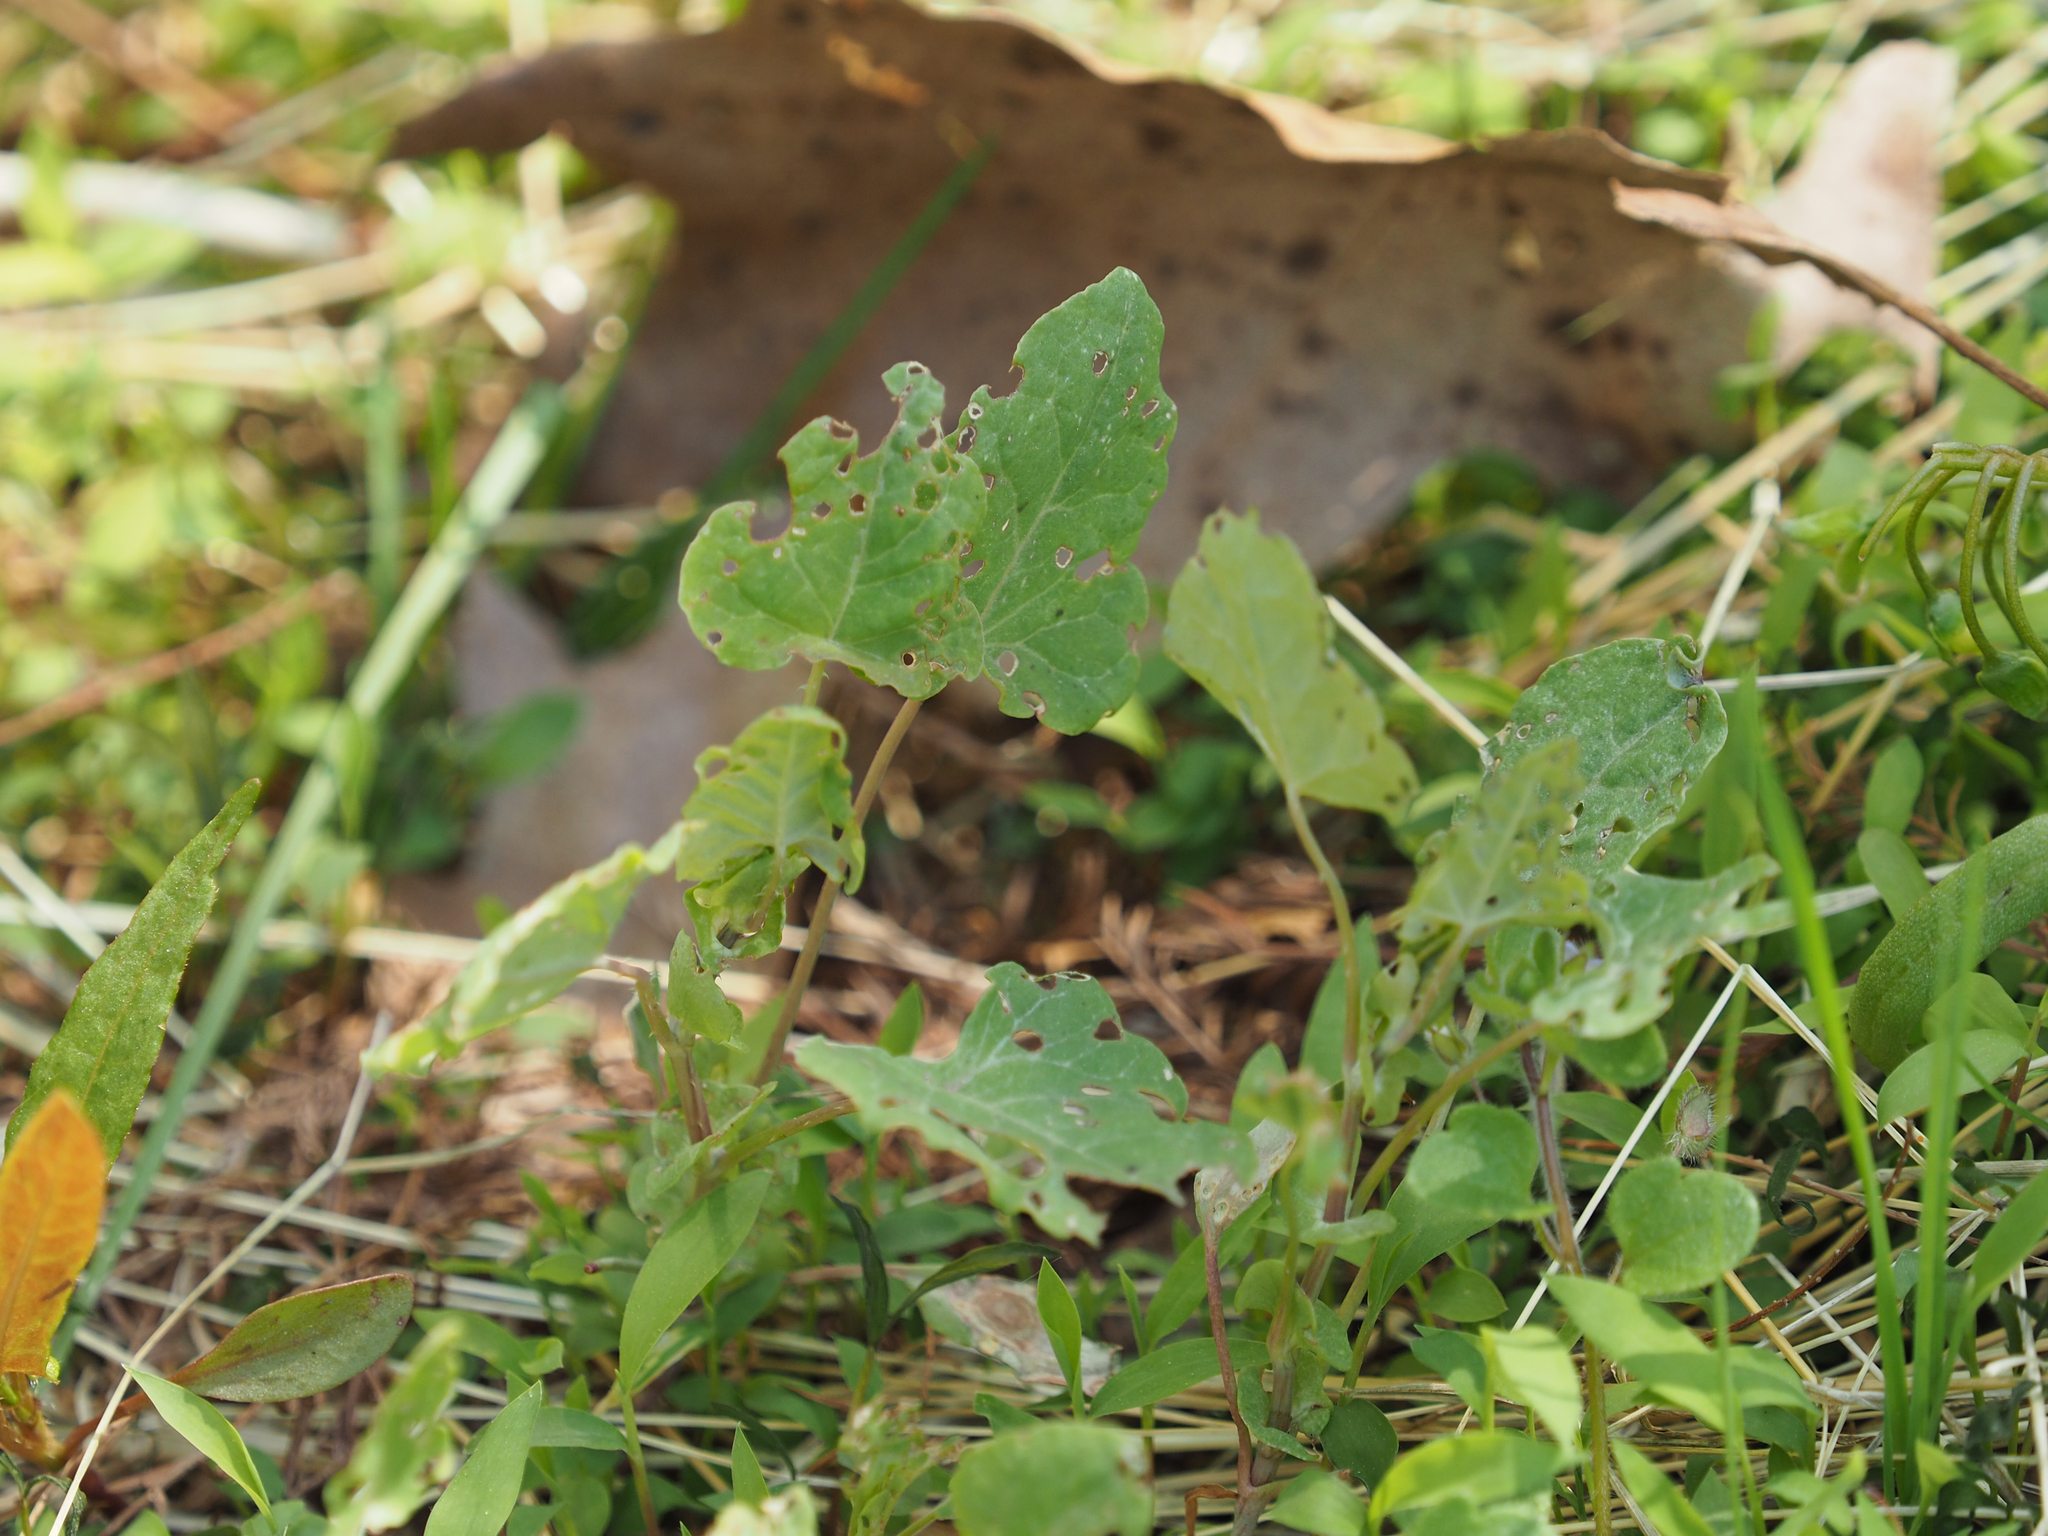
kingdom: Plantae
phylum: Tracheophyta
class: Magnoliopsida
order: Caryophyllales
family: Polygonaceae
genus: Persicaria
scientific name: Persicaria perfoliata
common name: Asiatic tearthumb
